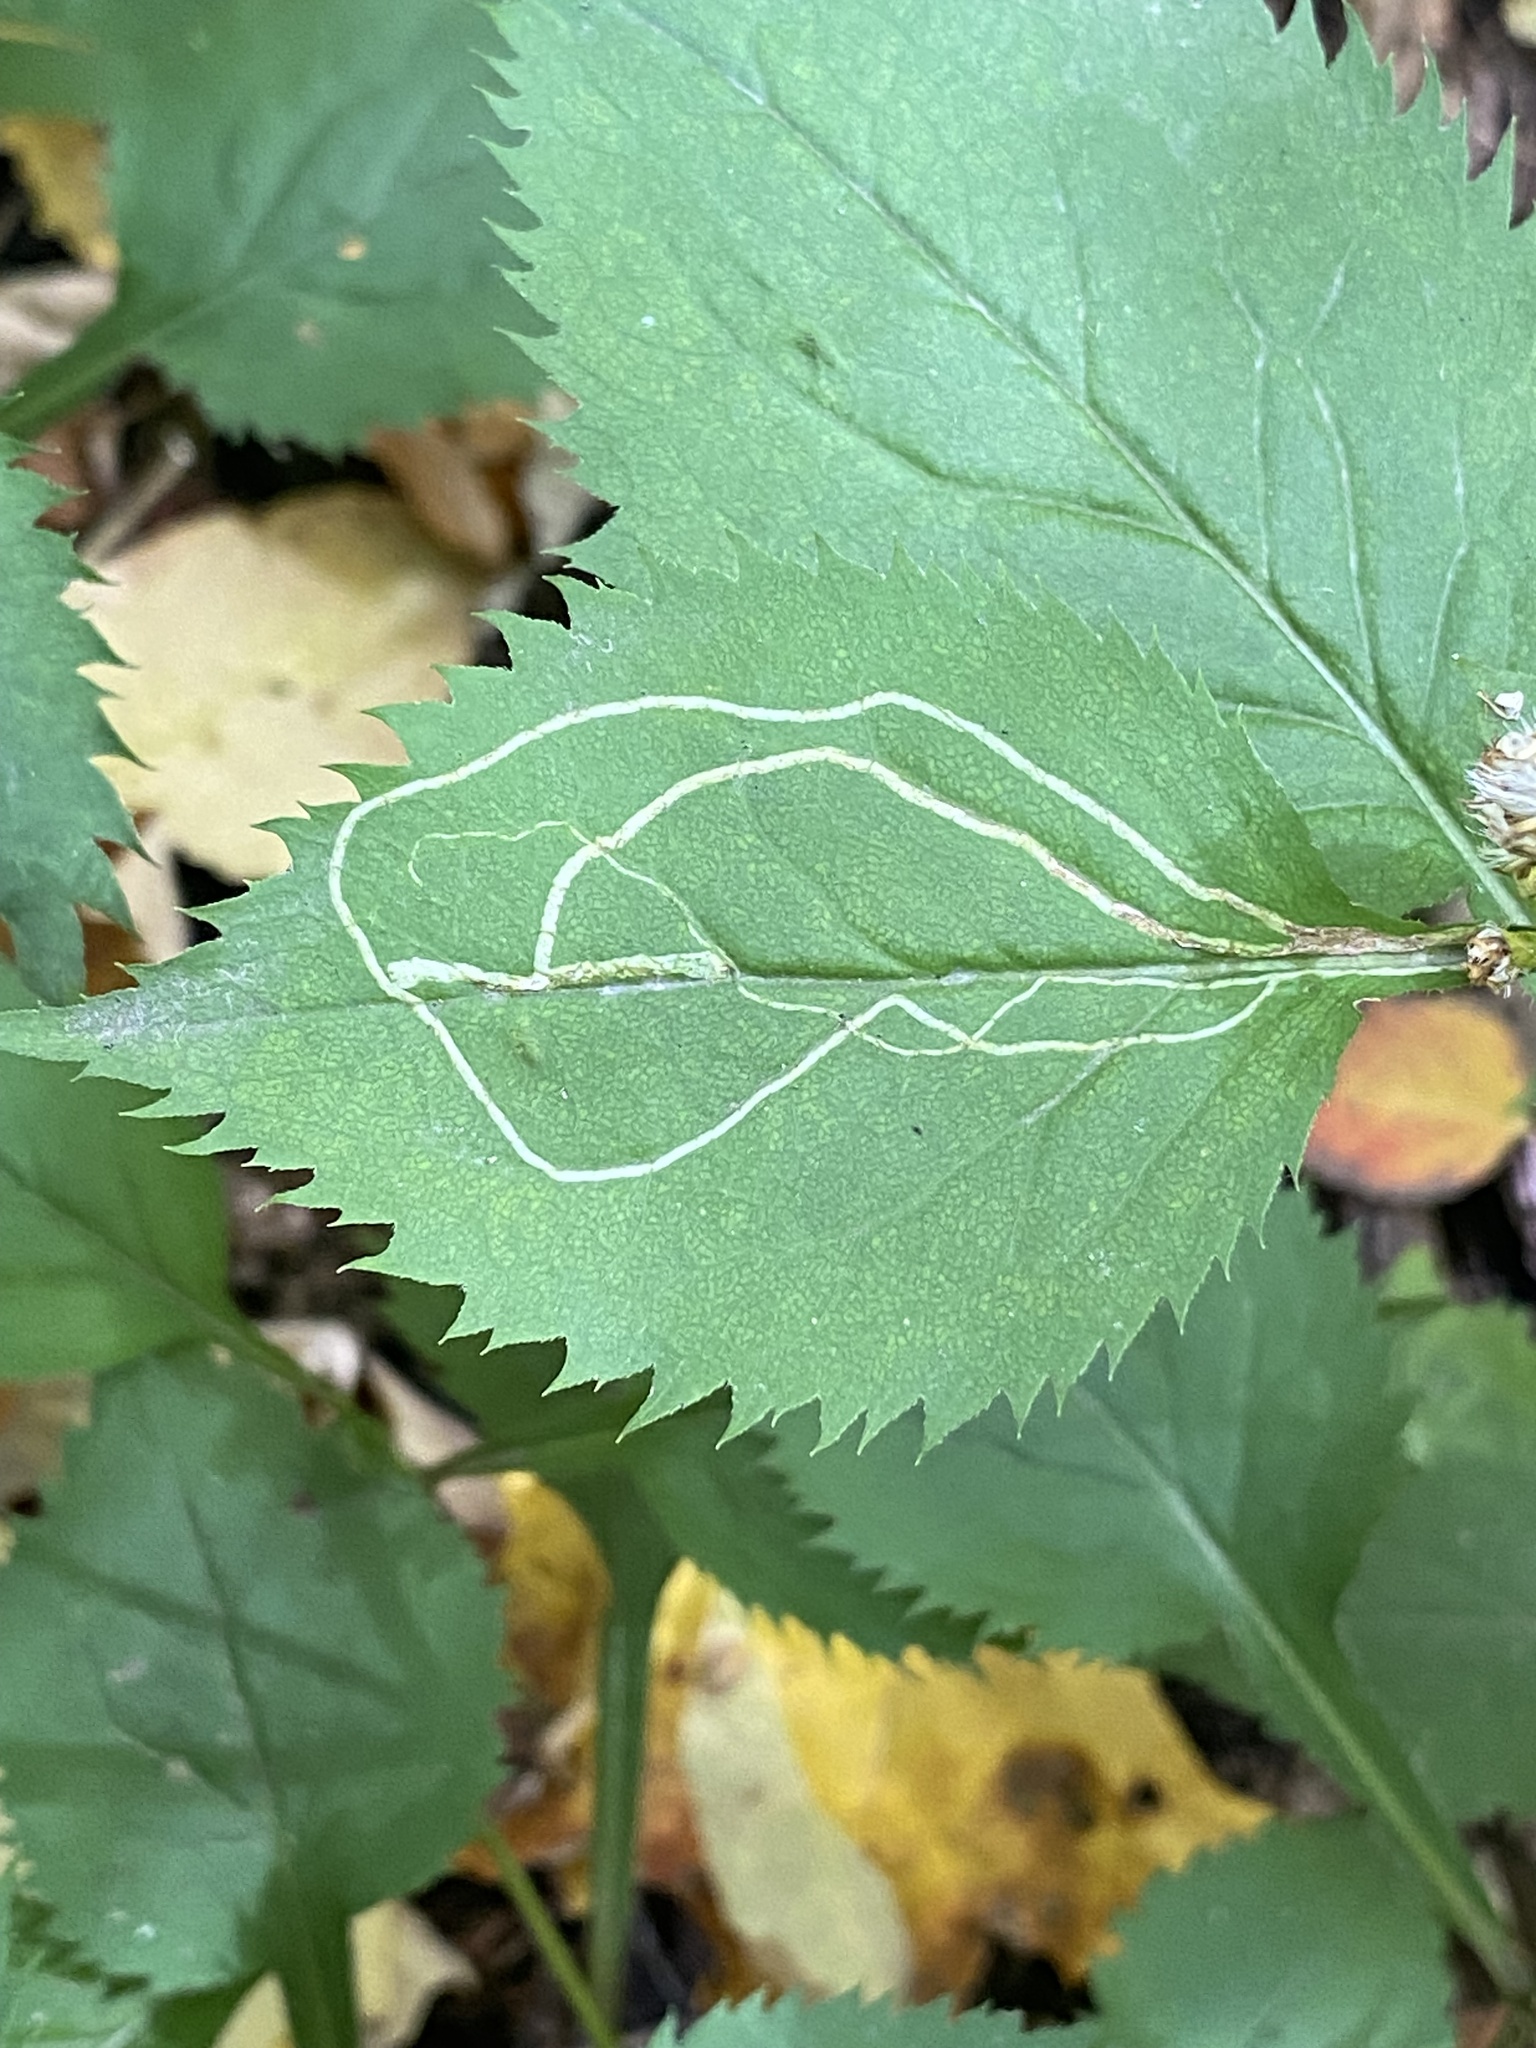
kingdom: Animalia
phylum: Arthropoda
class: Insecta
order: Diptera
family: Agromyzidae
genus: Ophiomyia
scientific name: Ophiomyia maura
